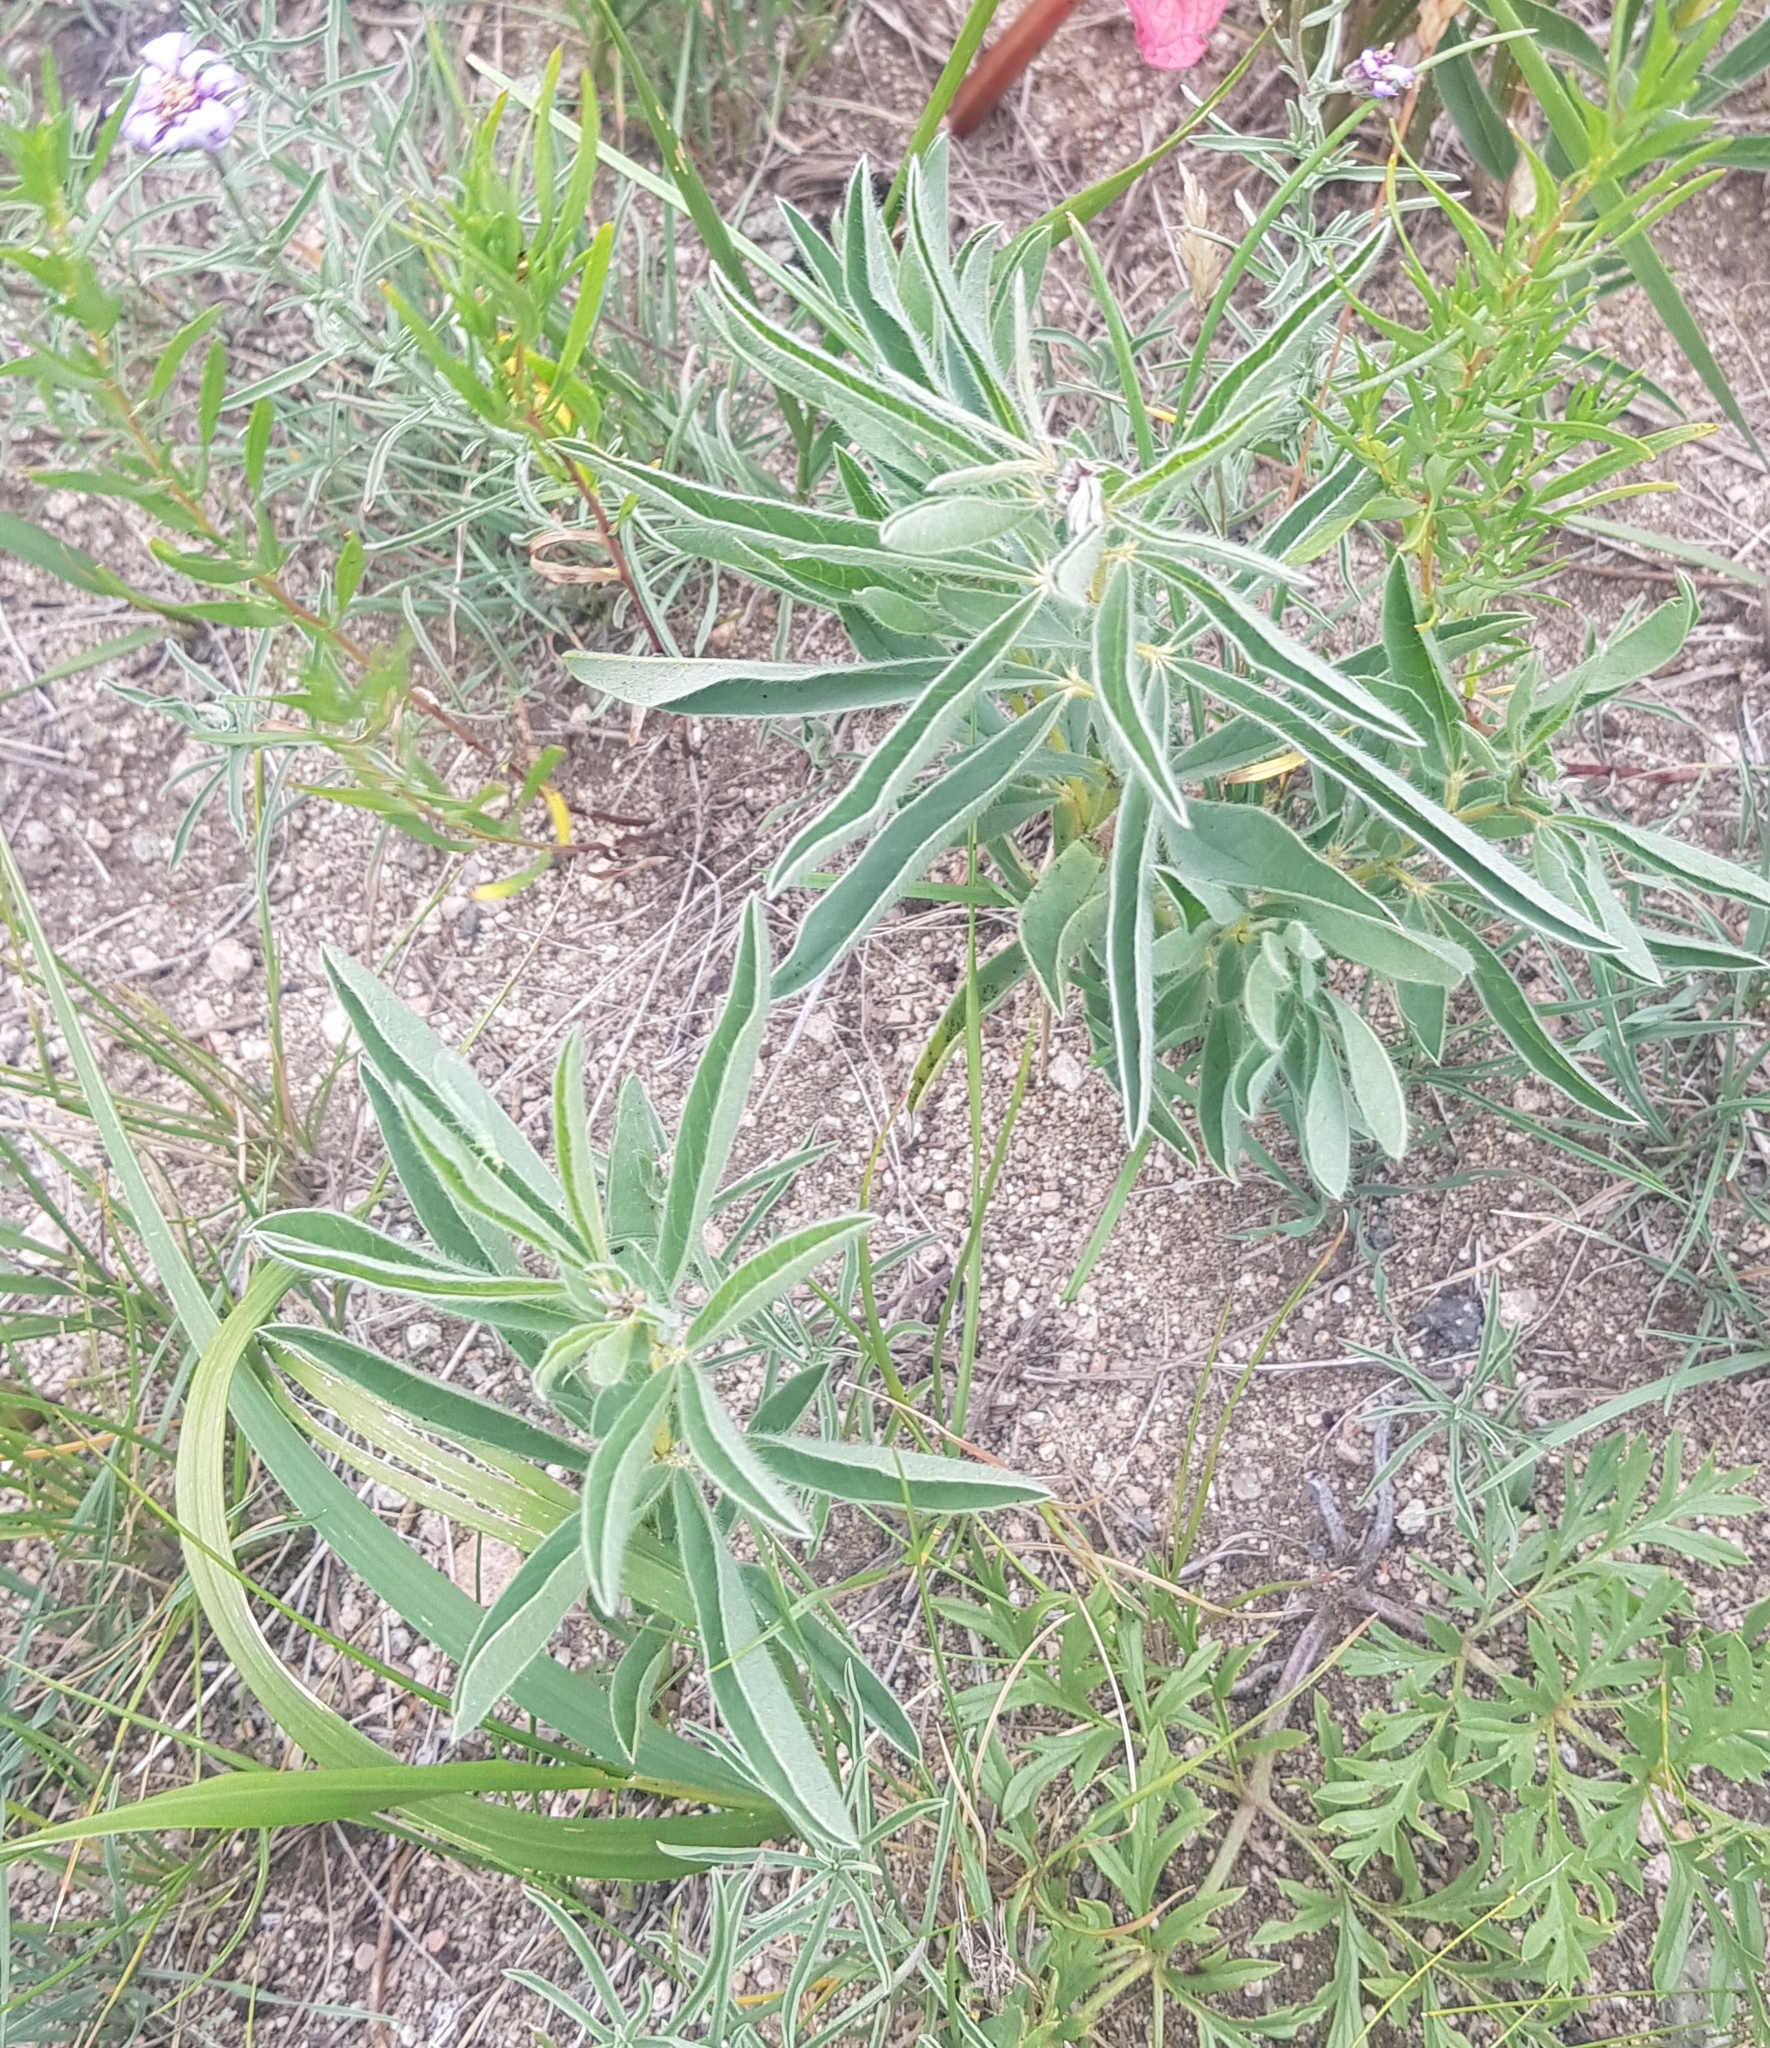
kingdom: Plantae
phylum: Tracheophyta
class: Magnoliopsida
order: Fabales
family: Fabaceae
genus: Thermopsis
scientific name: Thermopsis lanceolata
